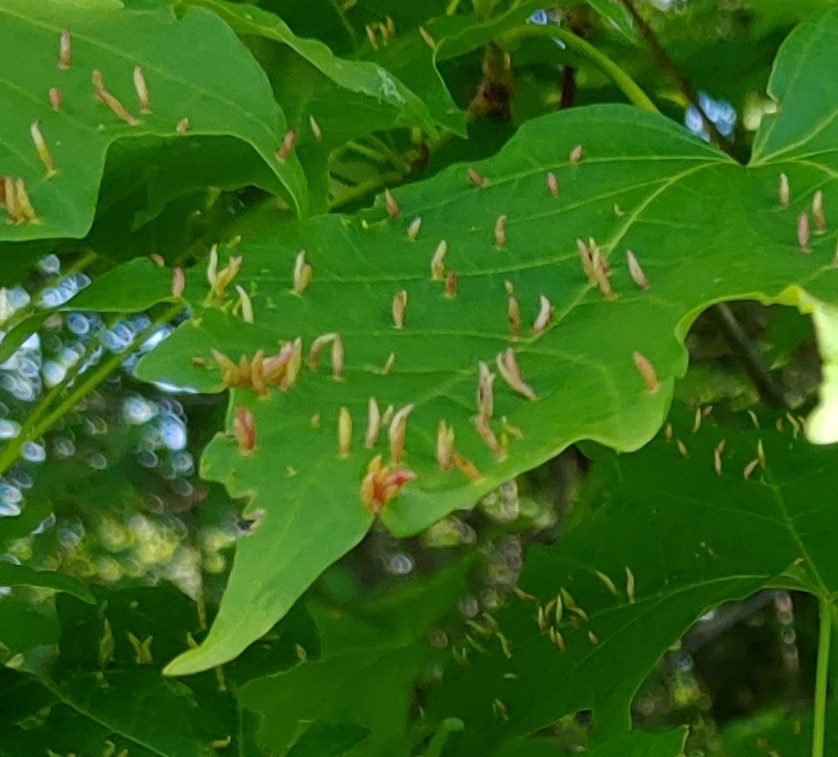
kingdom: Animalia
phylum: Arthropoda
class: Arachnida
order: Trombidiformes
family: Eriophyidae
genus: Vasates
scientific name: Vasates aceriscrumena
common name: Maple spindle gall mite
